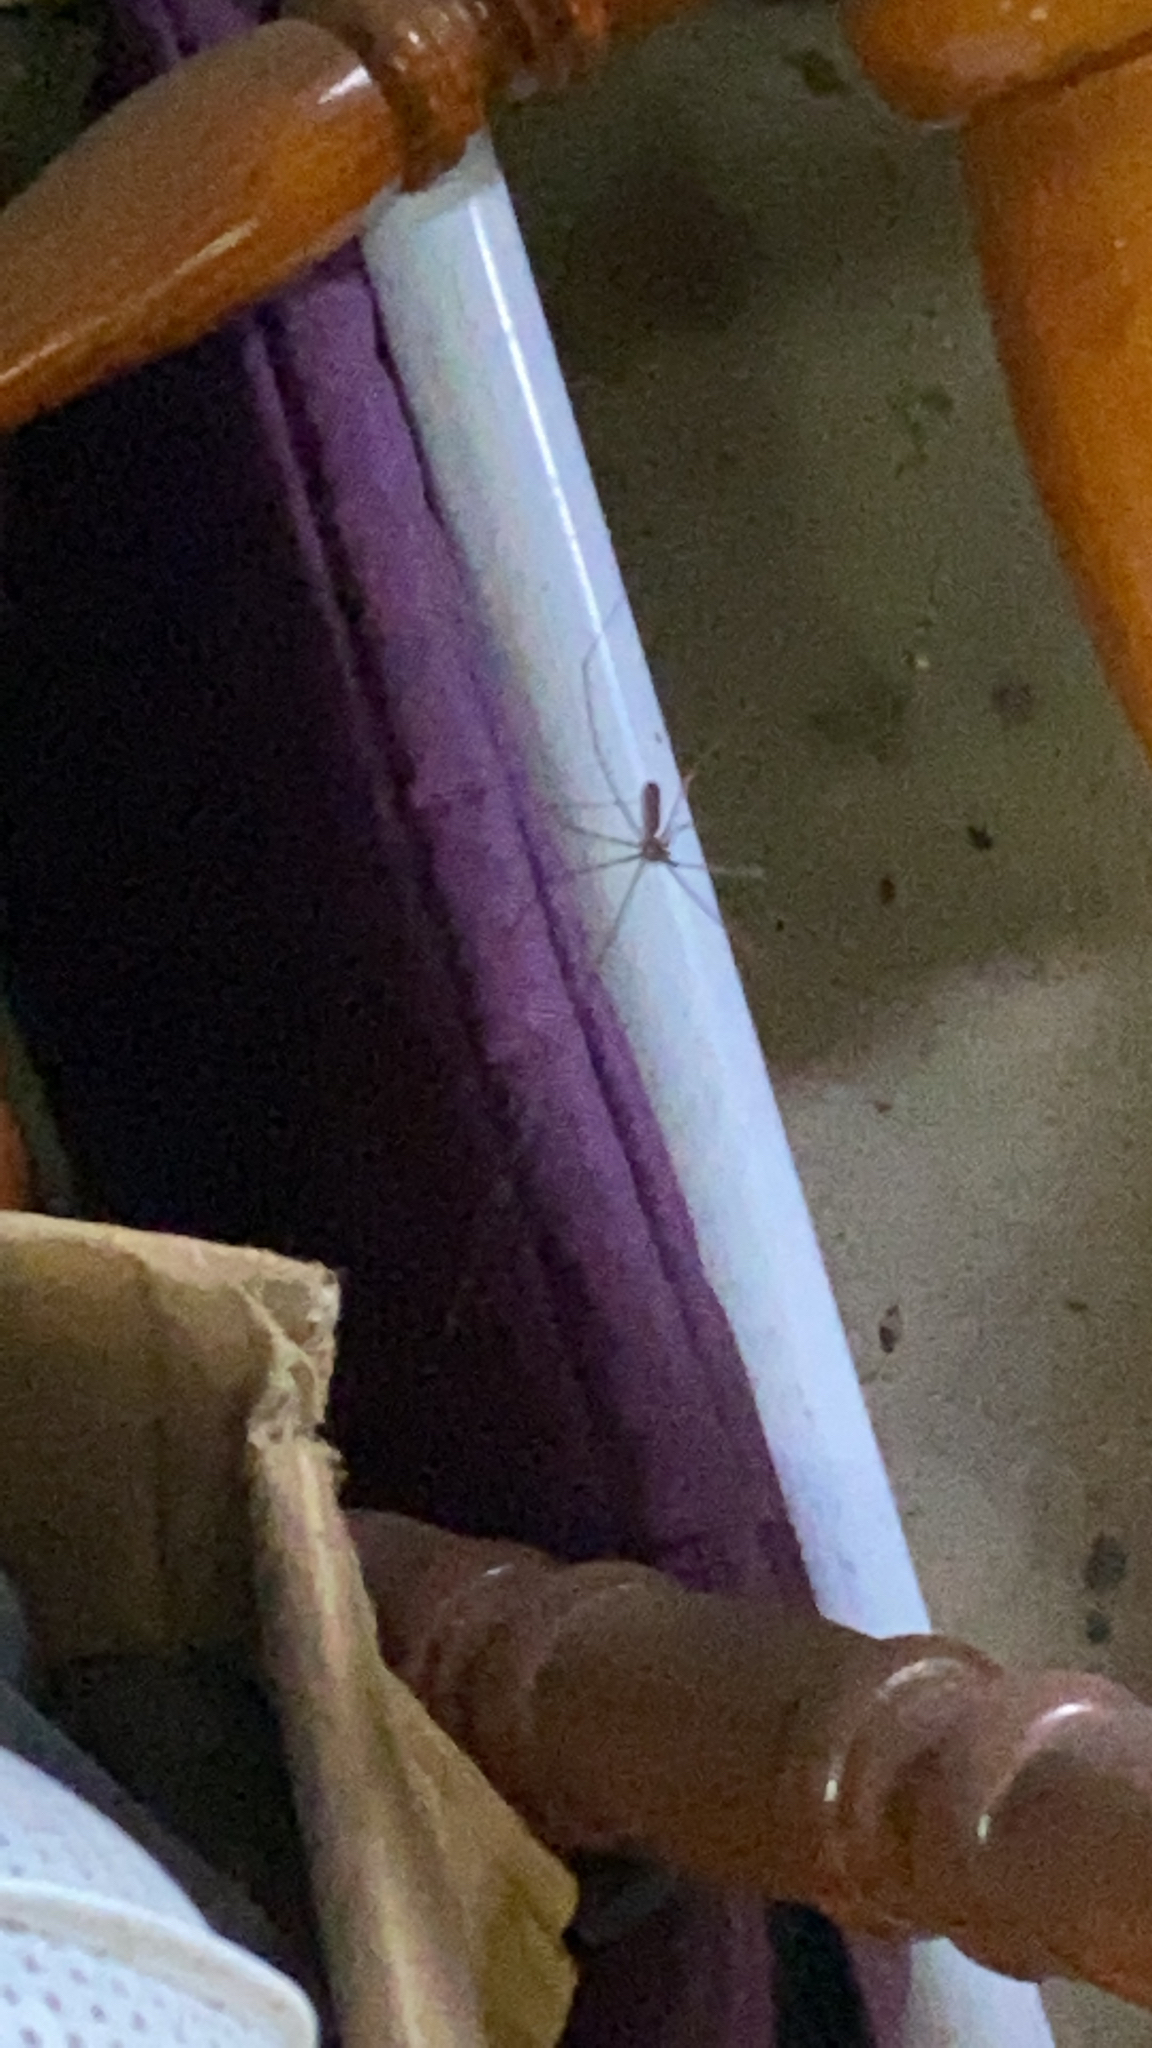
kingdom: Animalia
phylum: Arthropoda
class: Arachnida
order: Araneae
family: Pholcidae
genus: Pholcus
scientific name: Pholcus phalangioides
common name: Longbodied cellar spider
